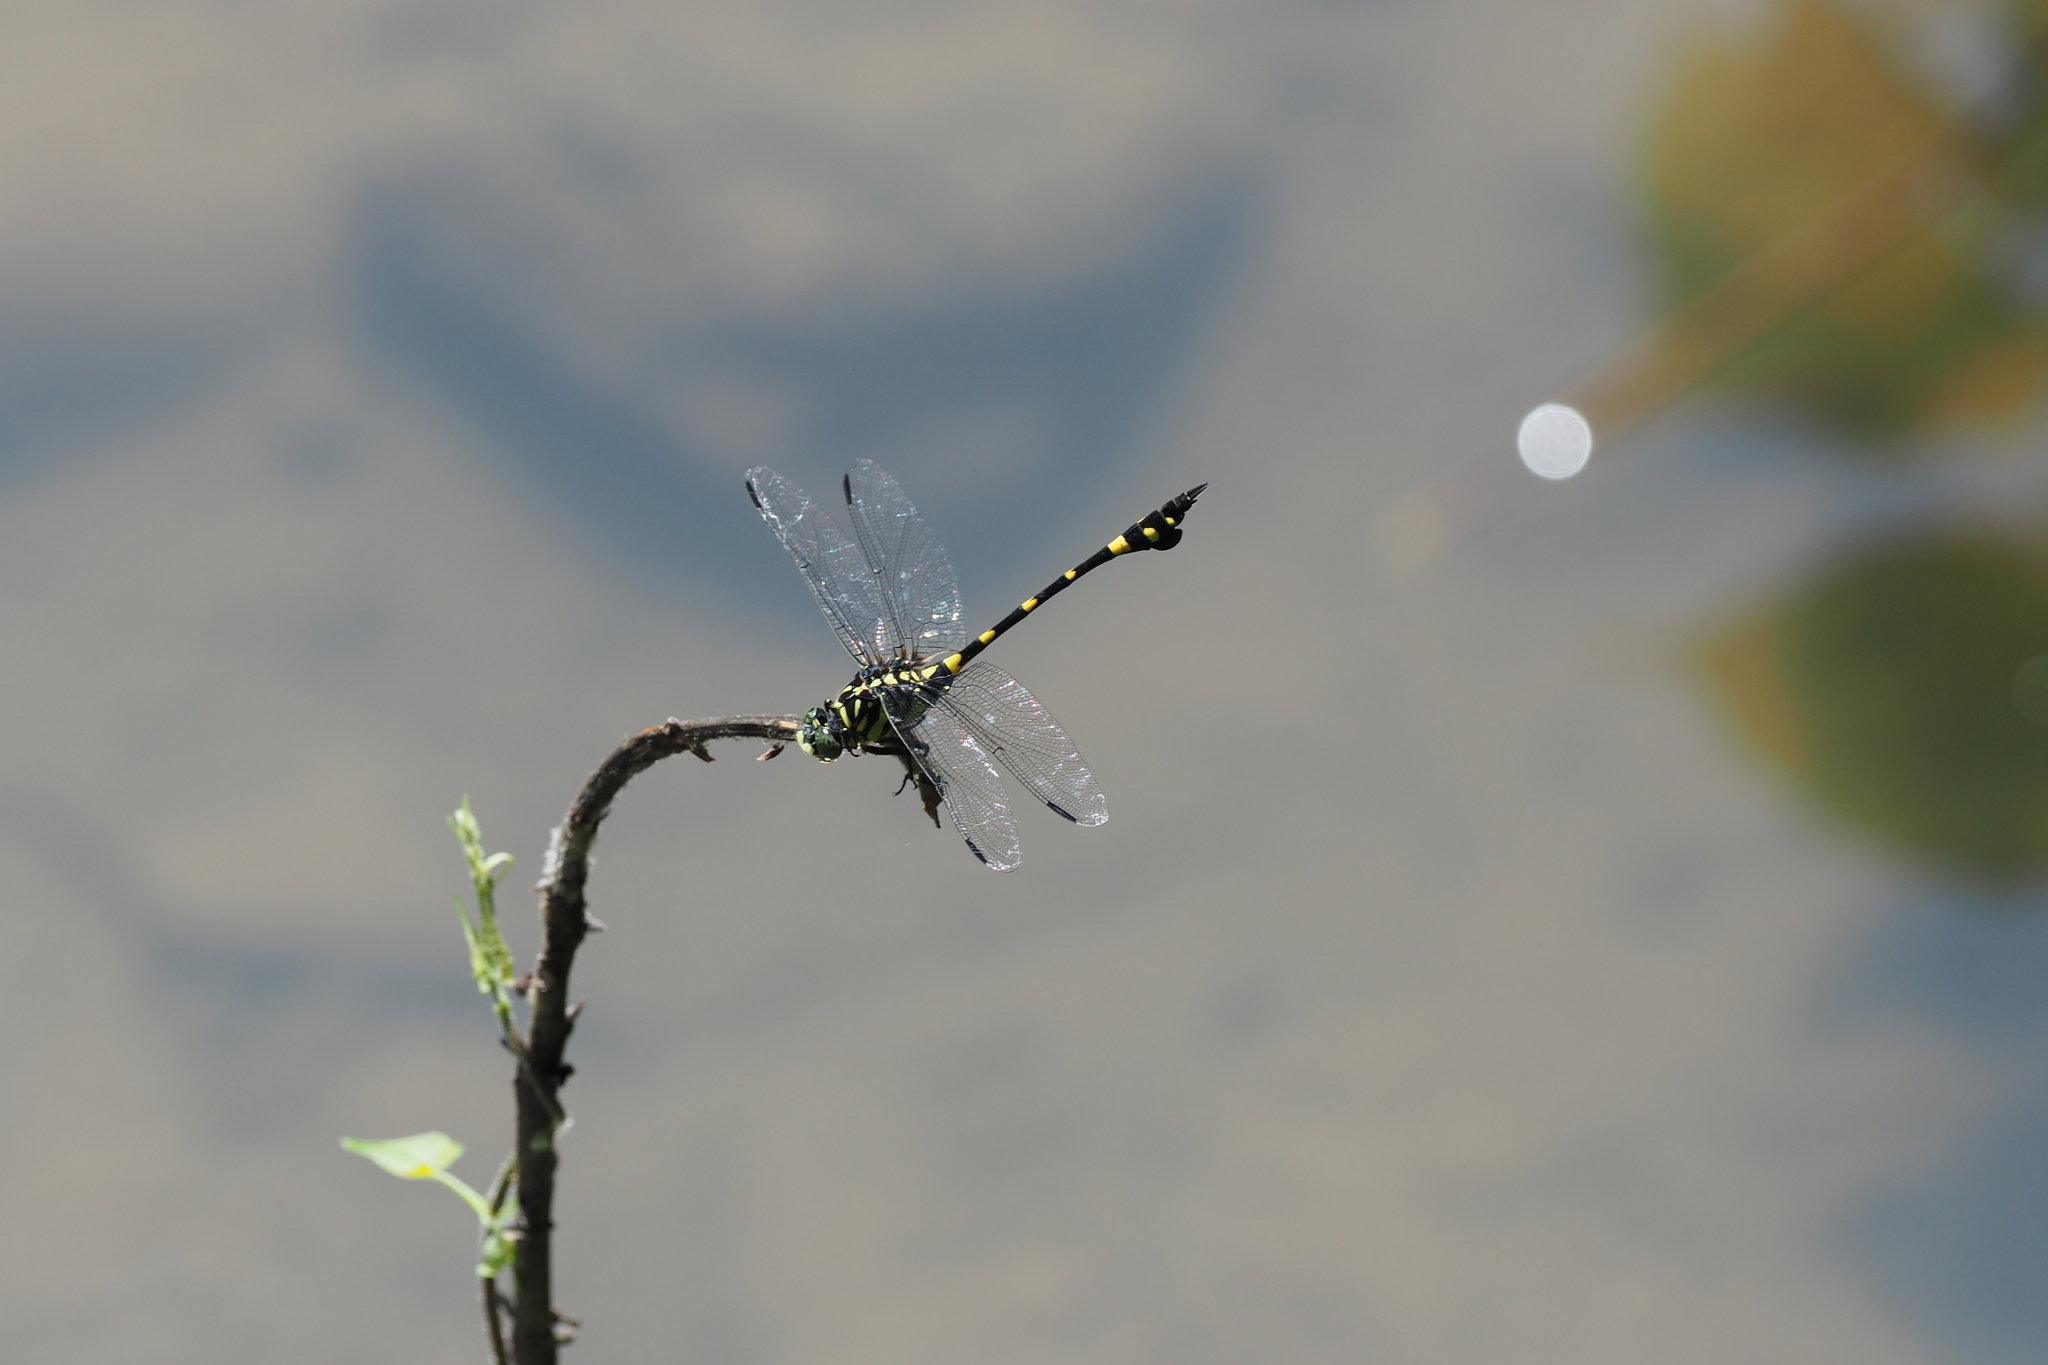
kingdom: Animalia
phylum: Arthropoda
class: Insecta
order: Odonata
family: Gomphidae
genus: Ictinogomphus
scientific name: Ictinogomphus rapax
